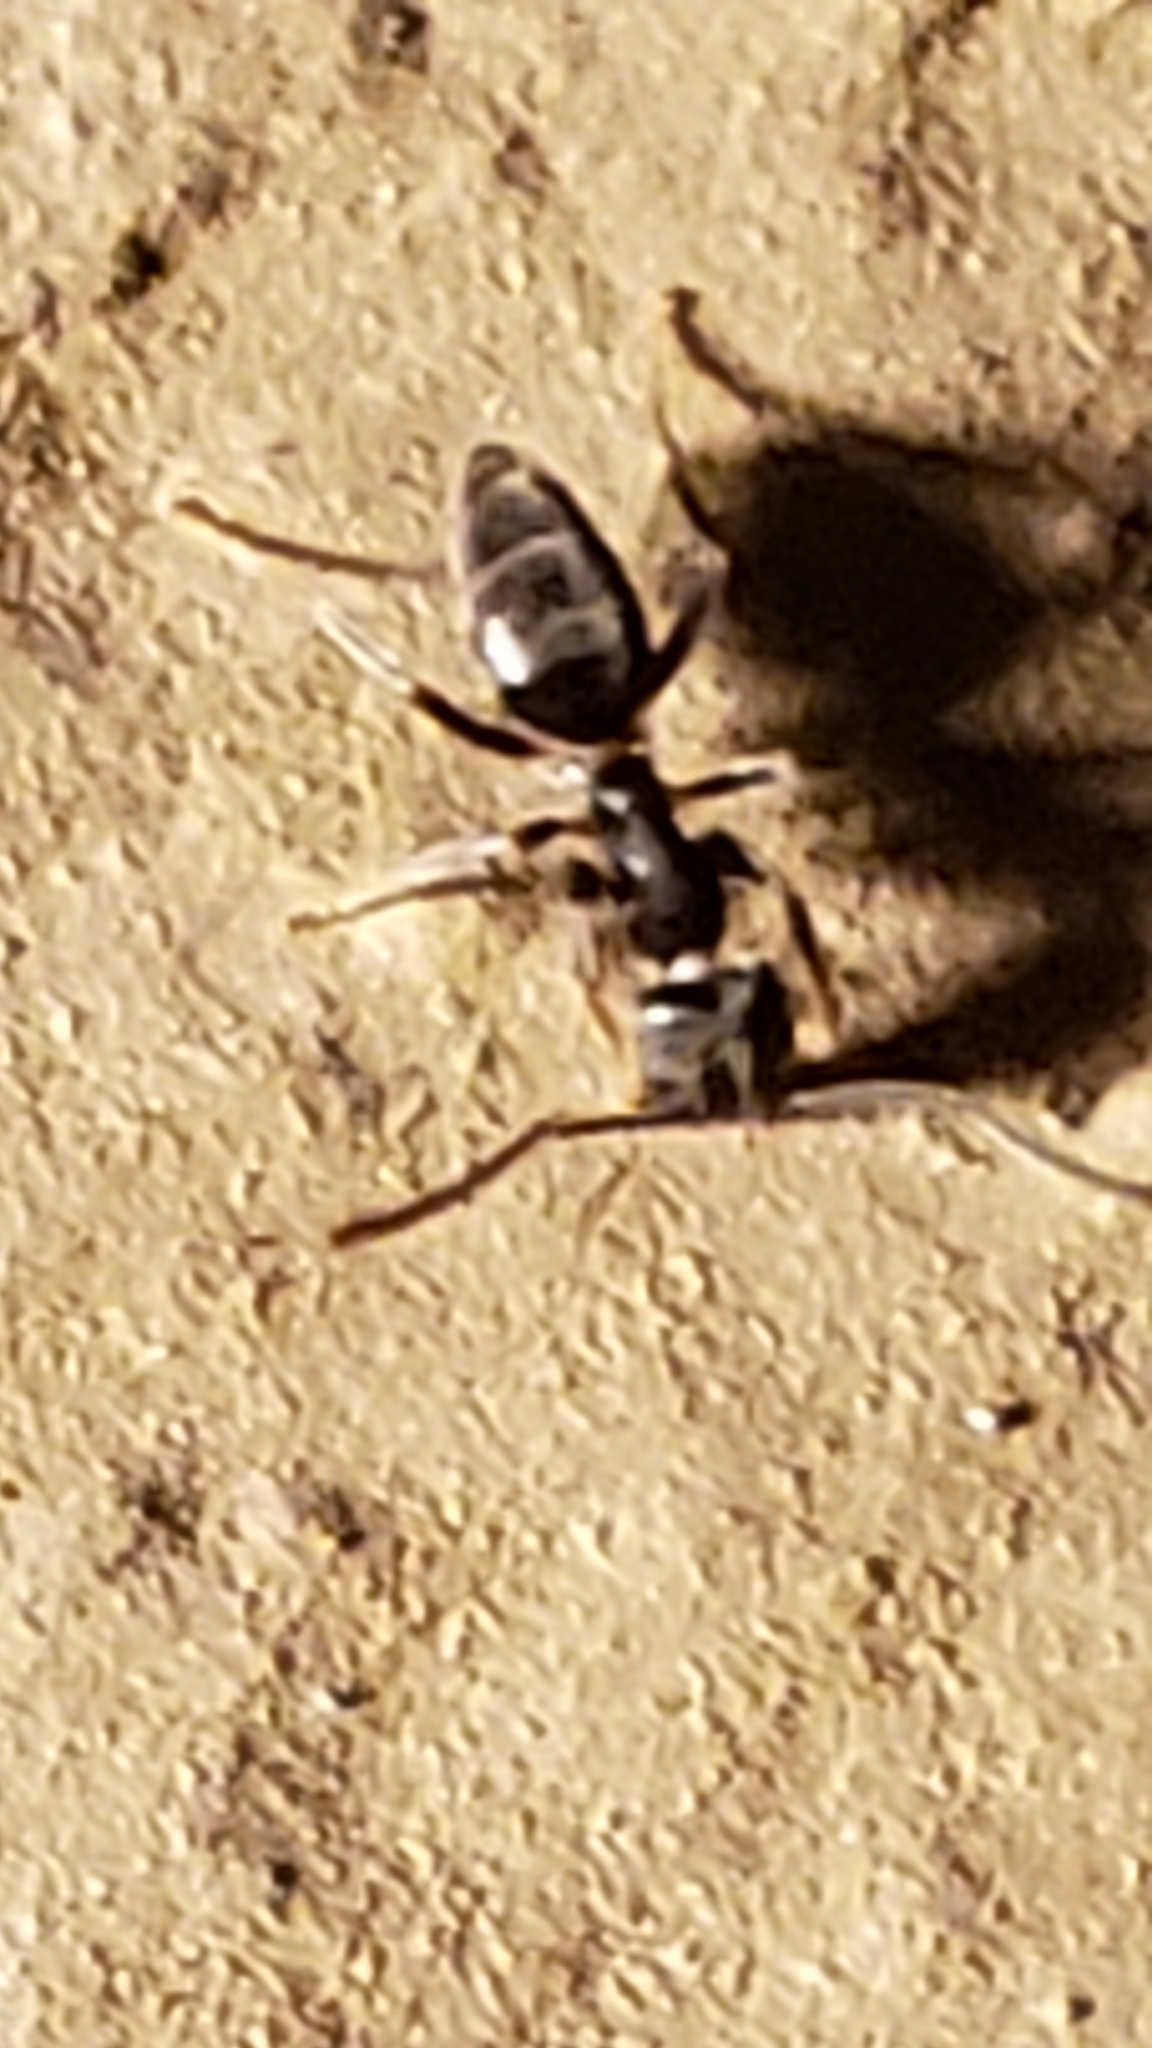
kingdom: Animalia
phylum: Arthropoda
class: Insecta
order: Hymenoptera
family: Formicidae
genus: Tapinoma
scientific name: Tapinoma sessile
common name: Odorous house ant
